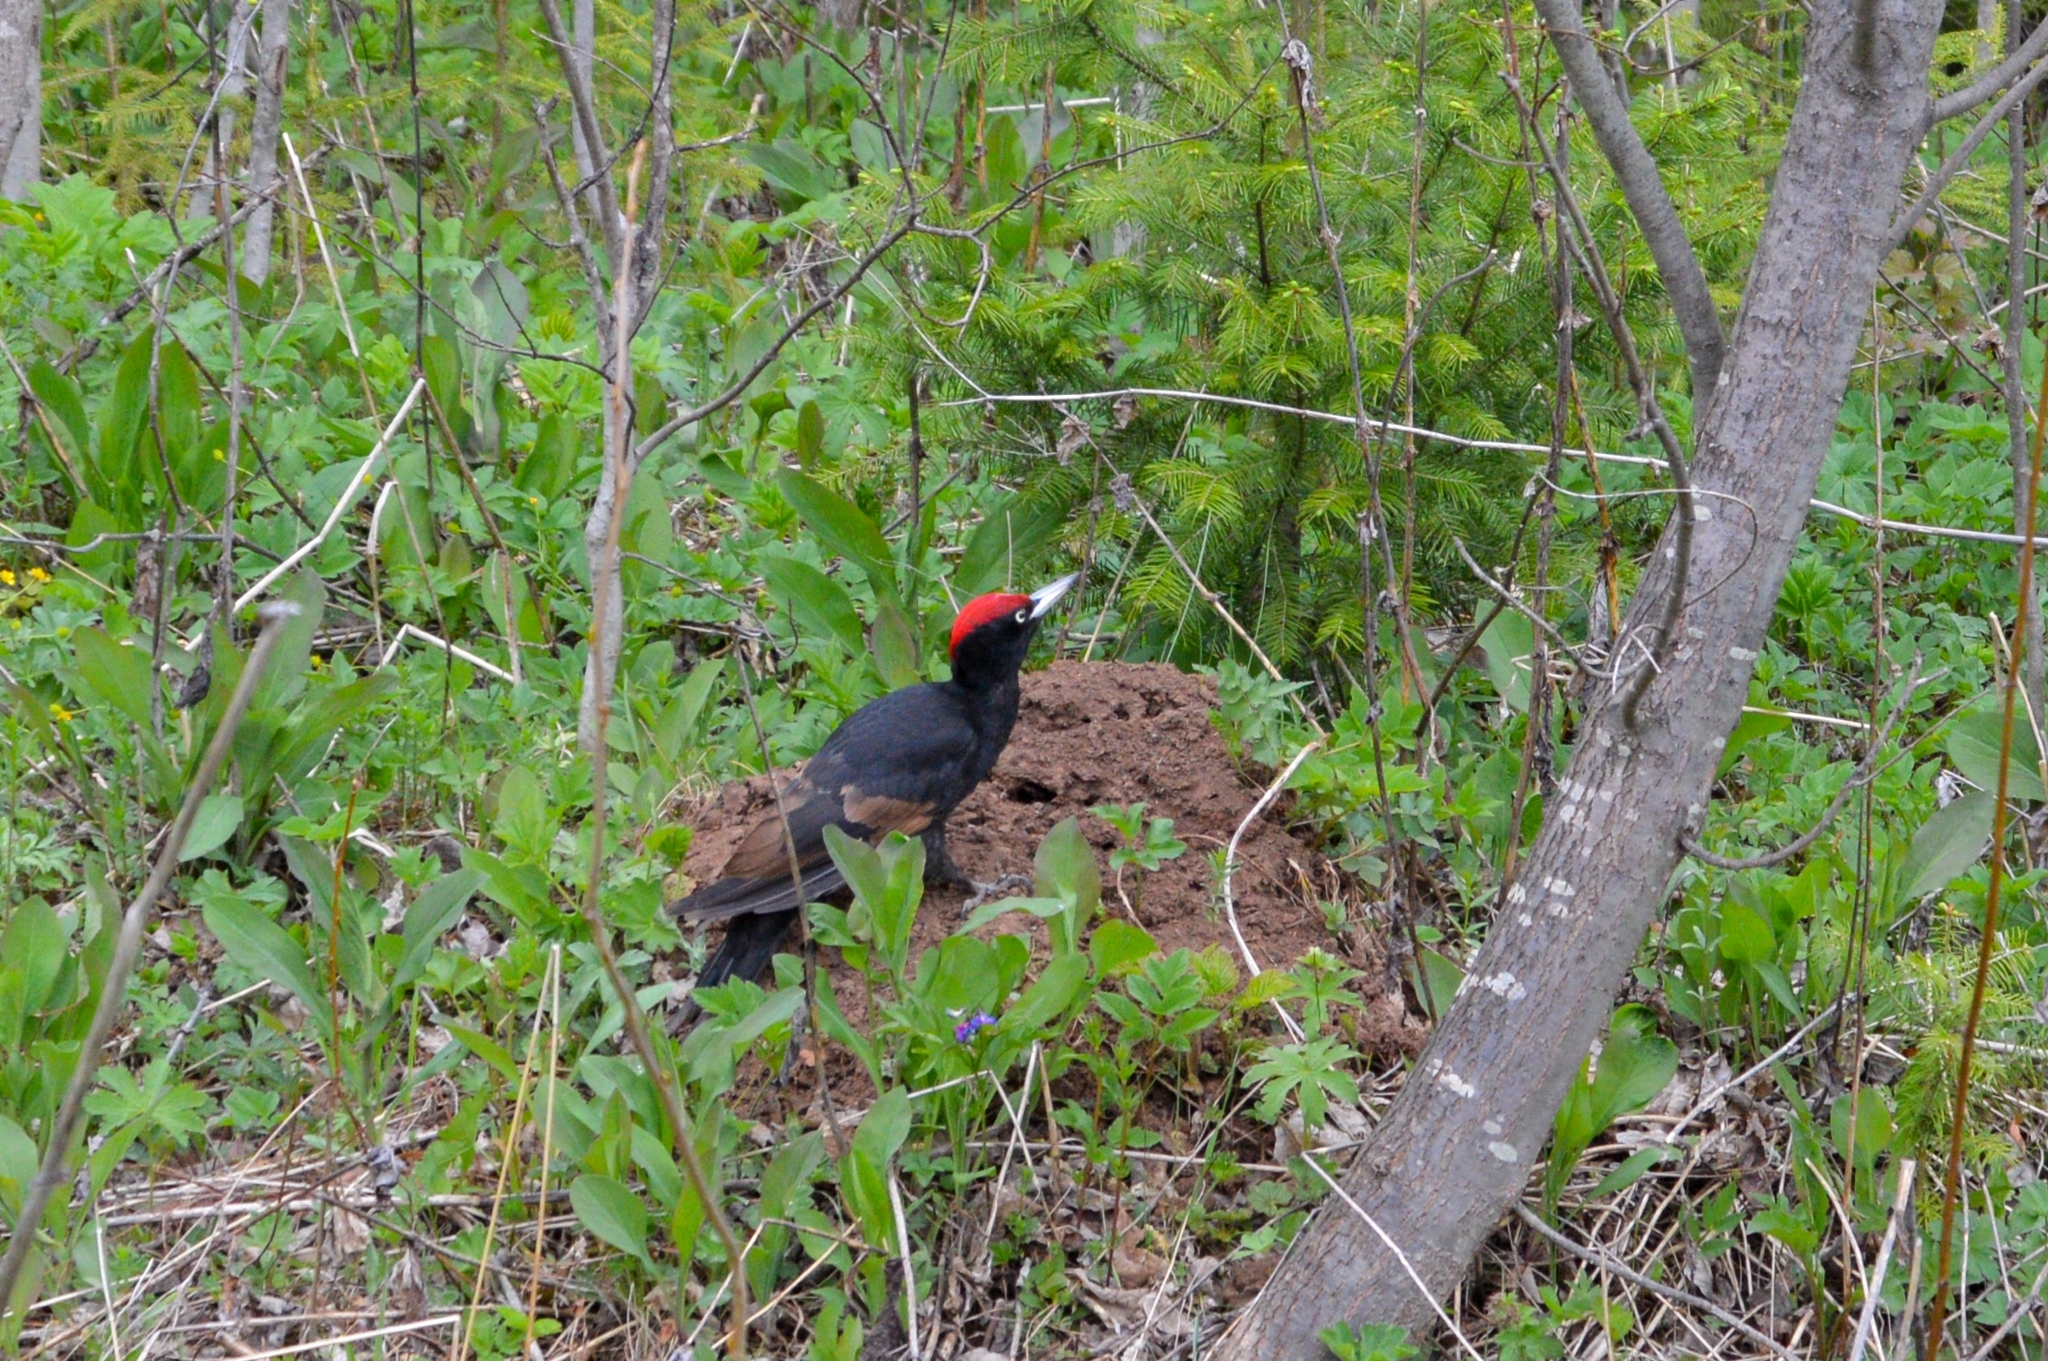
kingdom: Animalia
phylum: Chordata
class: Aves
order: Piciformes
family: Picidae
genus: Dryocopus
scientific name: Dryocopus martius
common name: Black woodpecker
